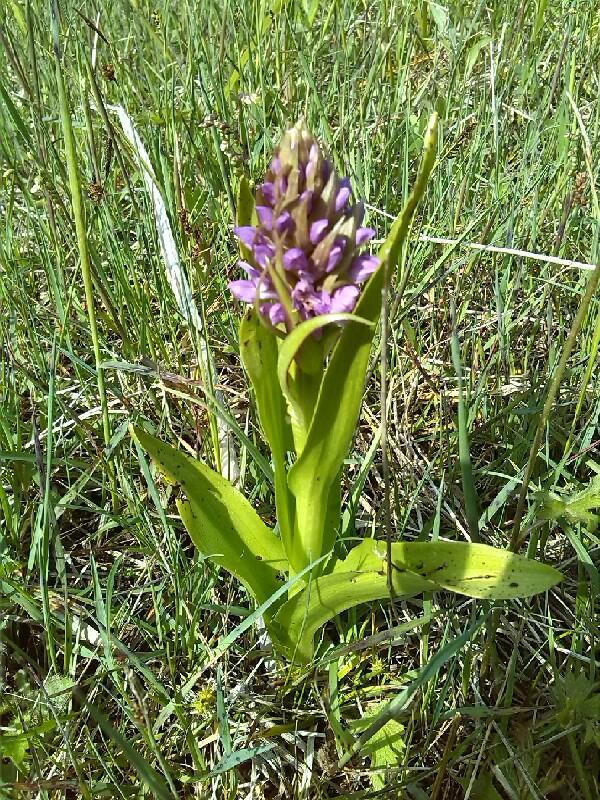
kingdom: Plantae
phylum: Tracheophyta
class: Liliopsida
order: Asparagales
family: Orchidaceae
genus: Dactylorhiza
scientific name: Dactylorhiza majalis
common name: Marsh orchid
